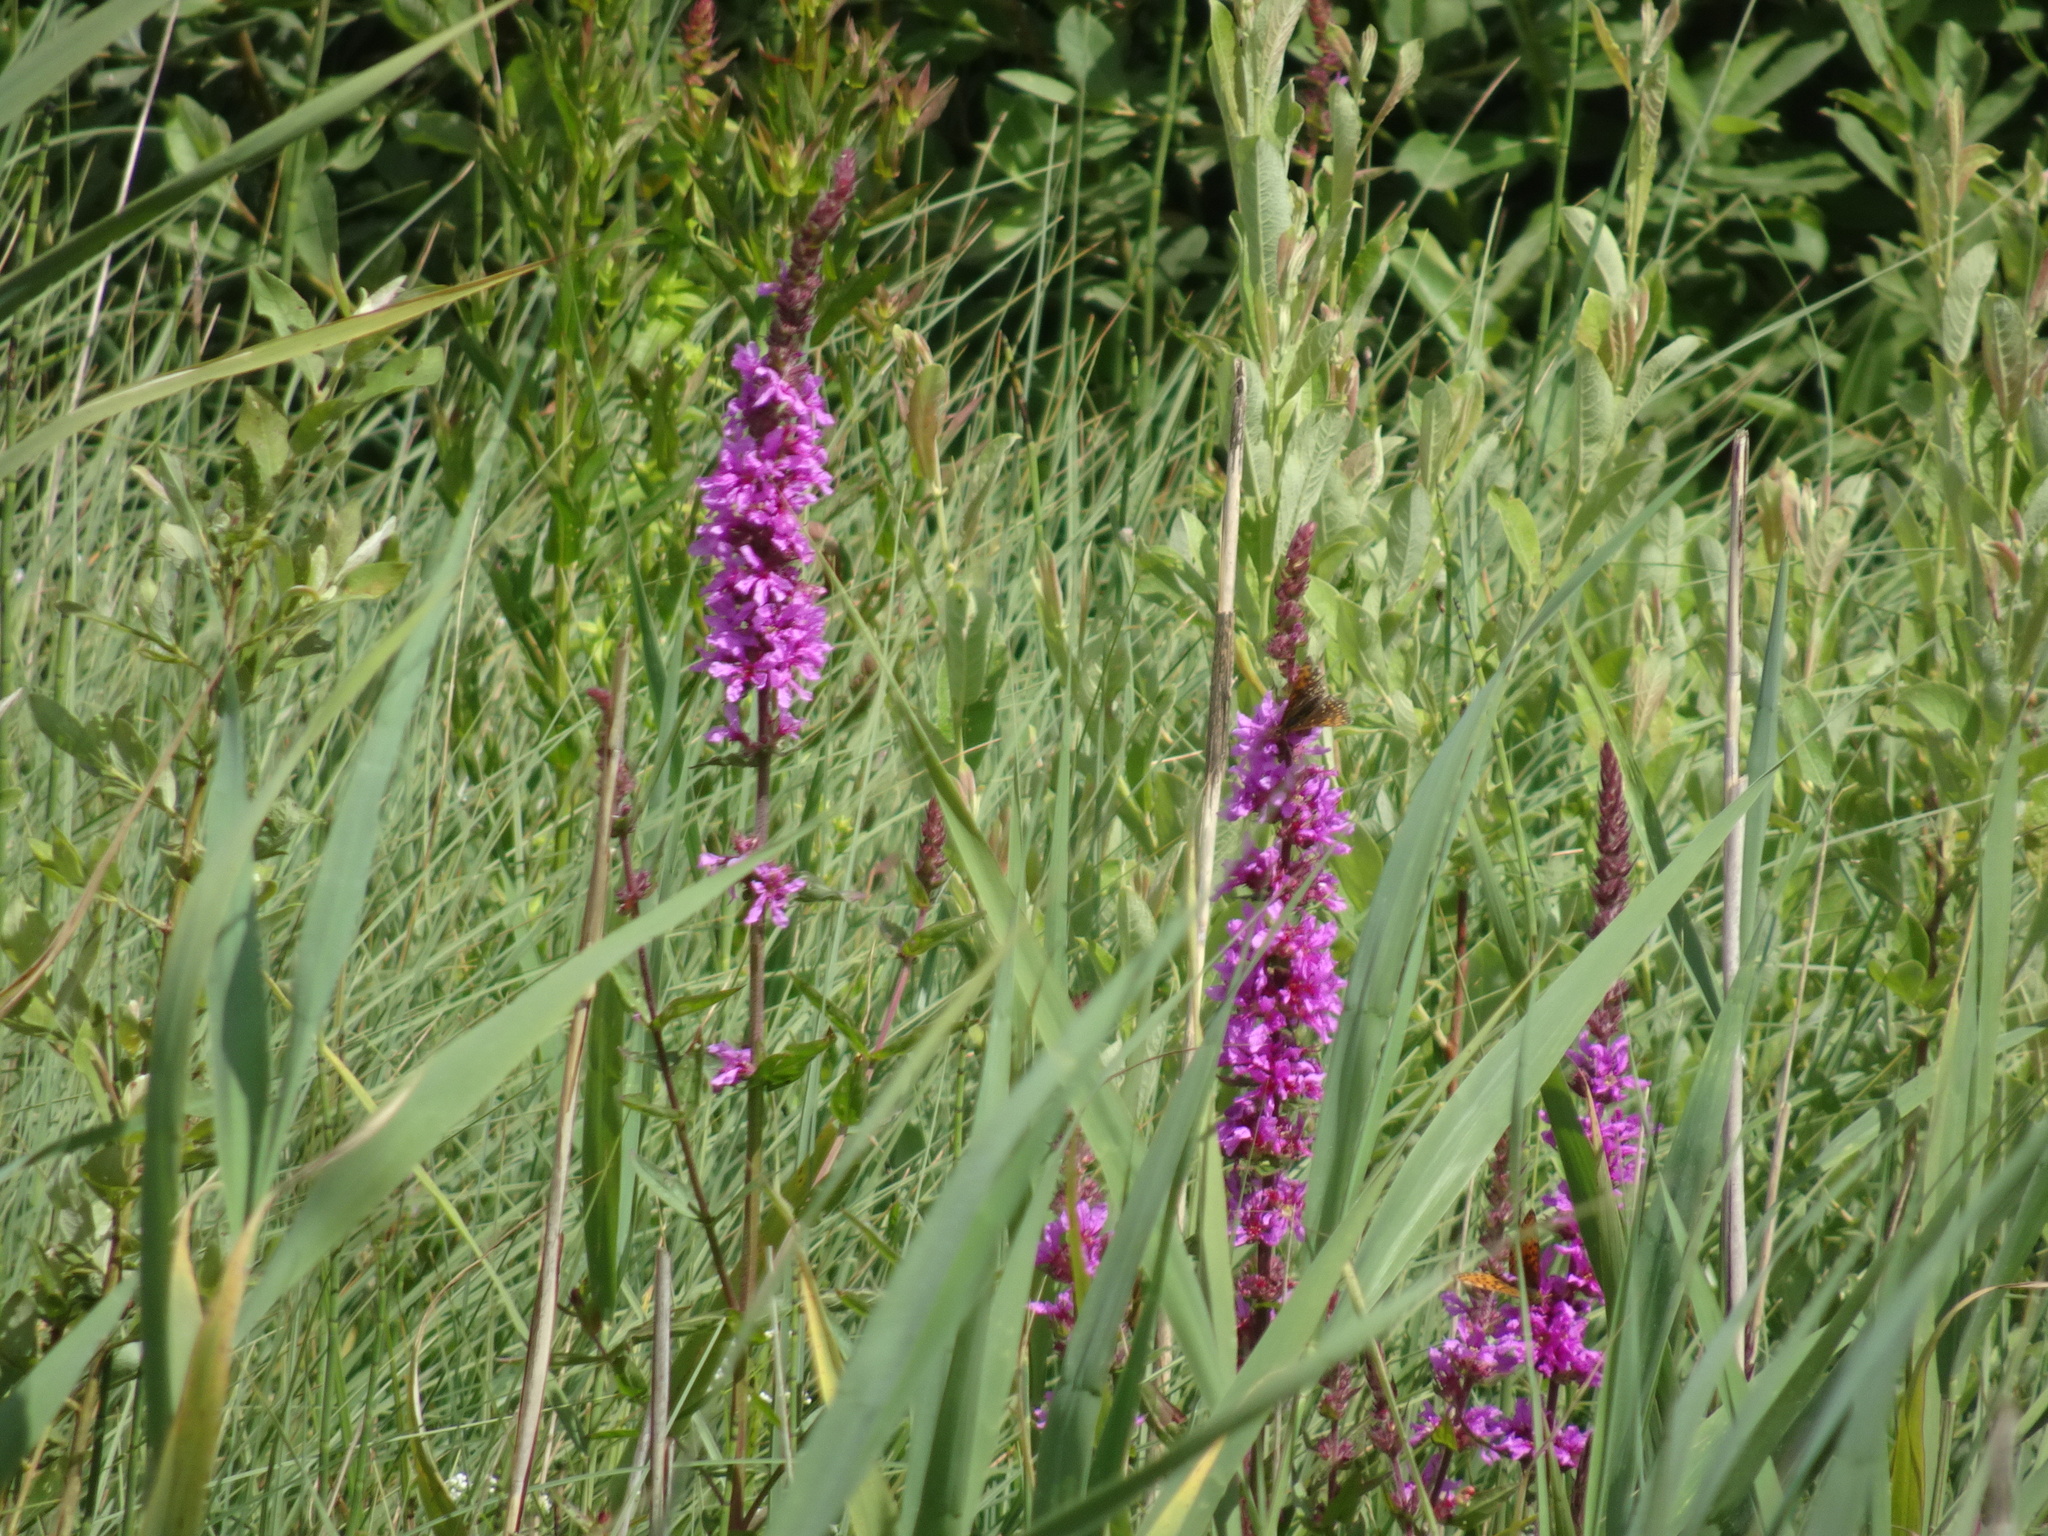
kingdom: Plantae
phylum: Tracheophyta
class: Magnoliopsida
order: Myrtales
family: Lythraceae
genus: Lythrum
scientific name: Lythrum salicaria
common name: Purple loosestrife
